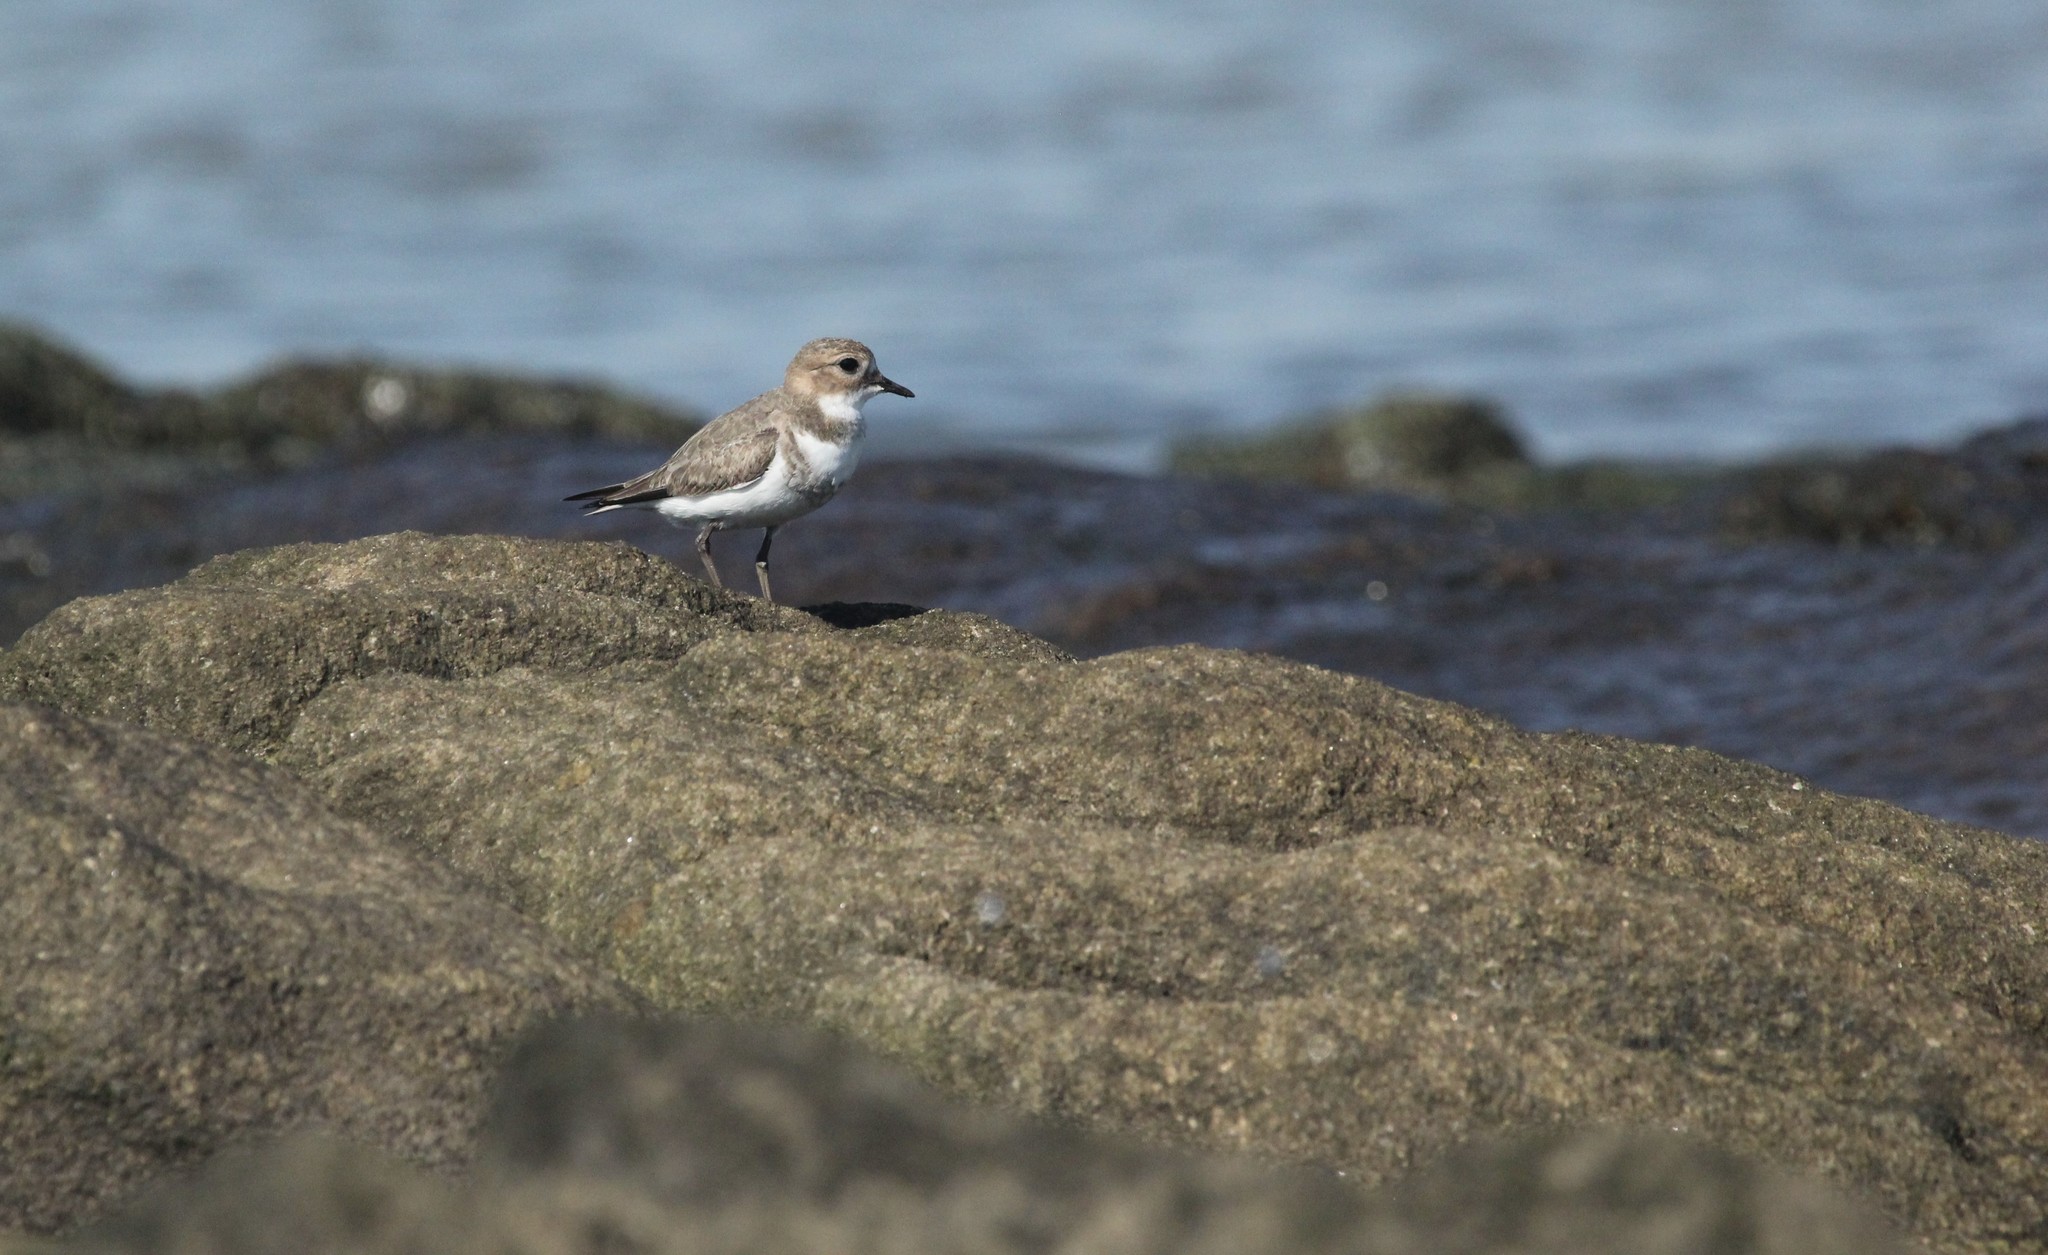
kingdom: Animalia
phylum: Chordata
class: Aves
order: Charadriiformes
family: Charadriidae
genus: Anarhynchus
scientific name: Anarhynchus
